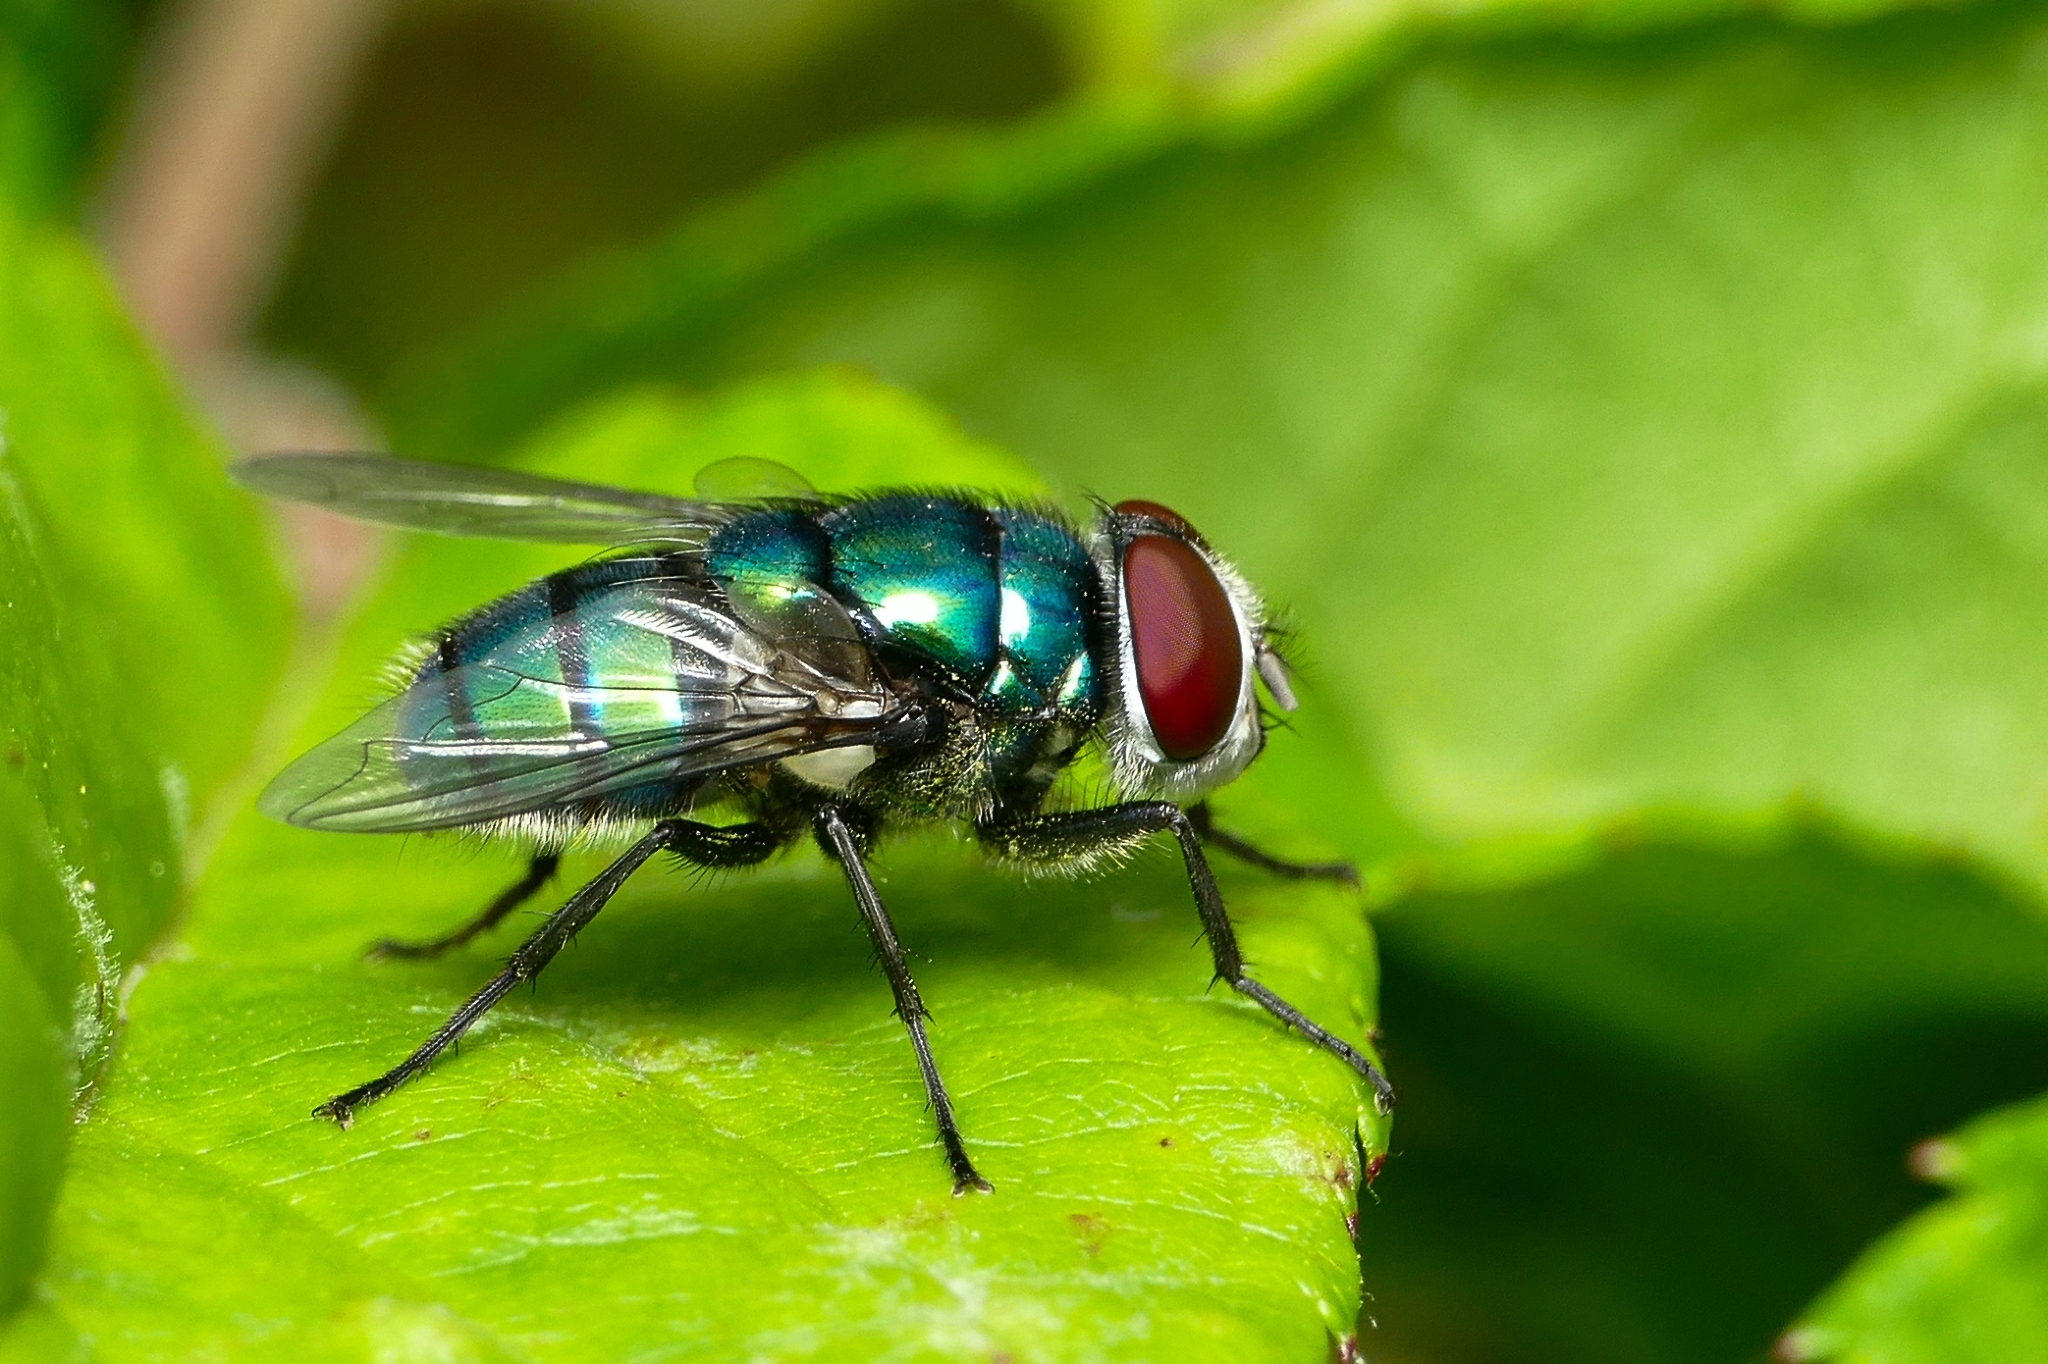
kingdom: Animalia
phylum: Arthropoda
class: Insecta
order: Diptera
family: Calliphoridae
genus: Chrysomya
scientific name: Chrysomya albiceps
